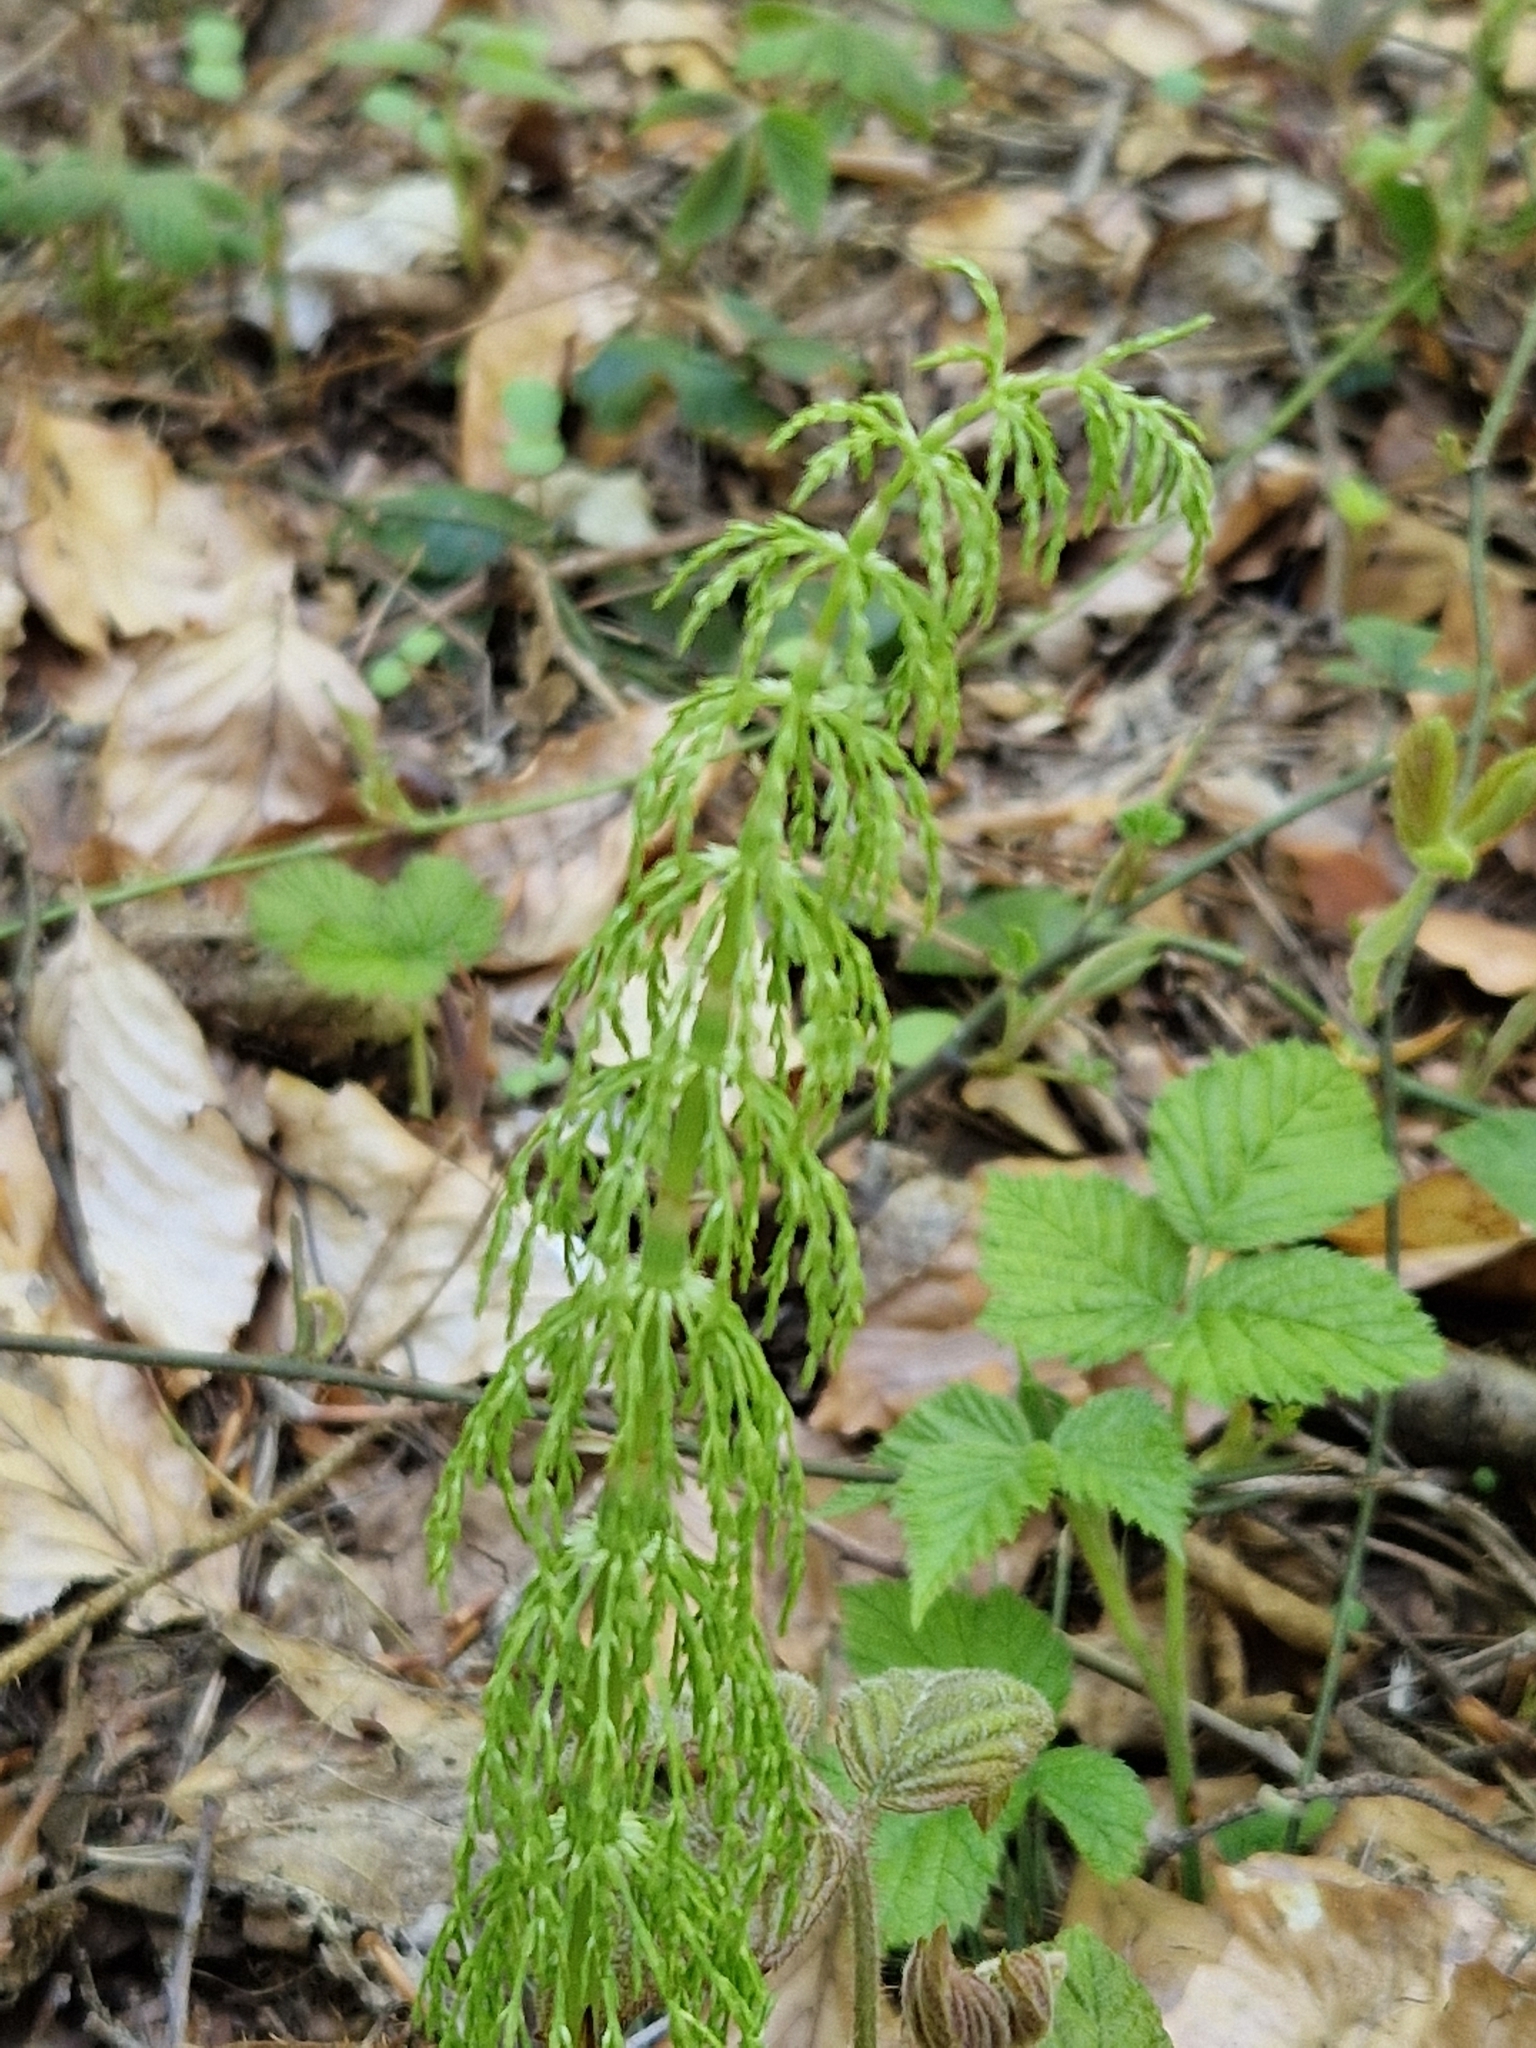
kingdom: Plantae
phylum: Tracheophyta
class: Polypodiopsida
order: Equisetales
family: Equisetaceae
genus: Equisetum
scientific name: Equisetum sylvaticum
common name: Wood horsetail
